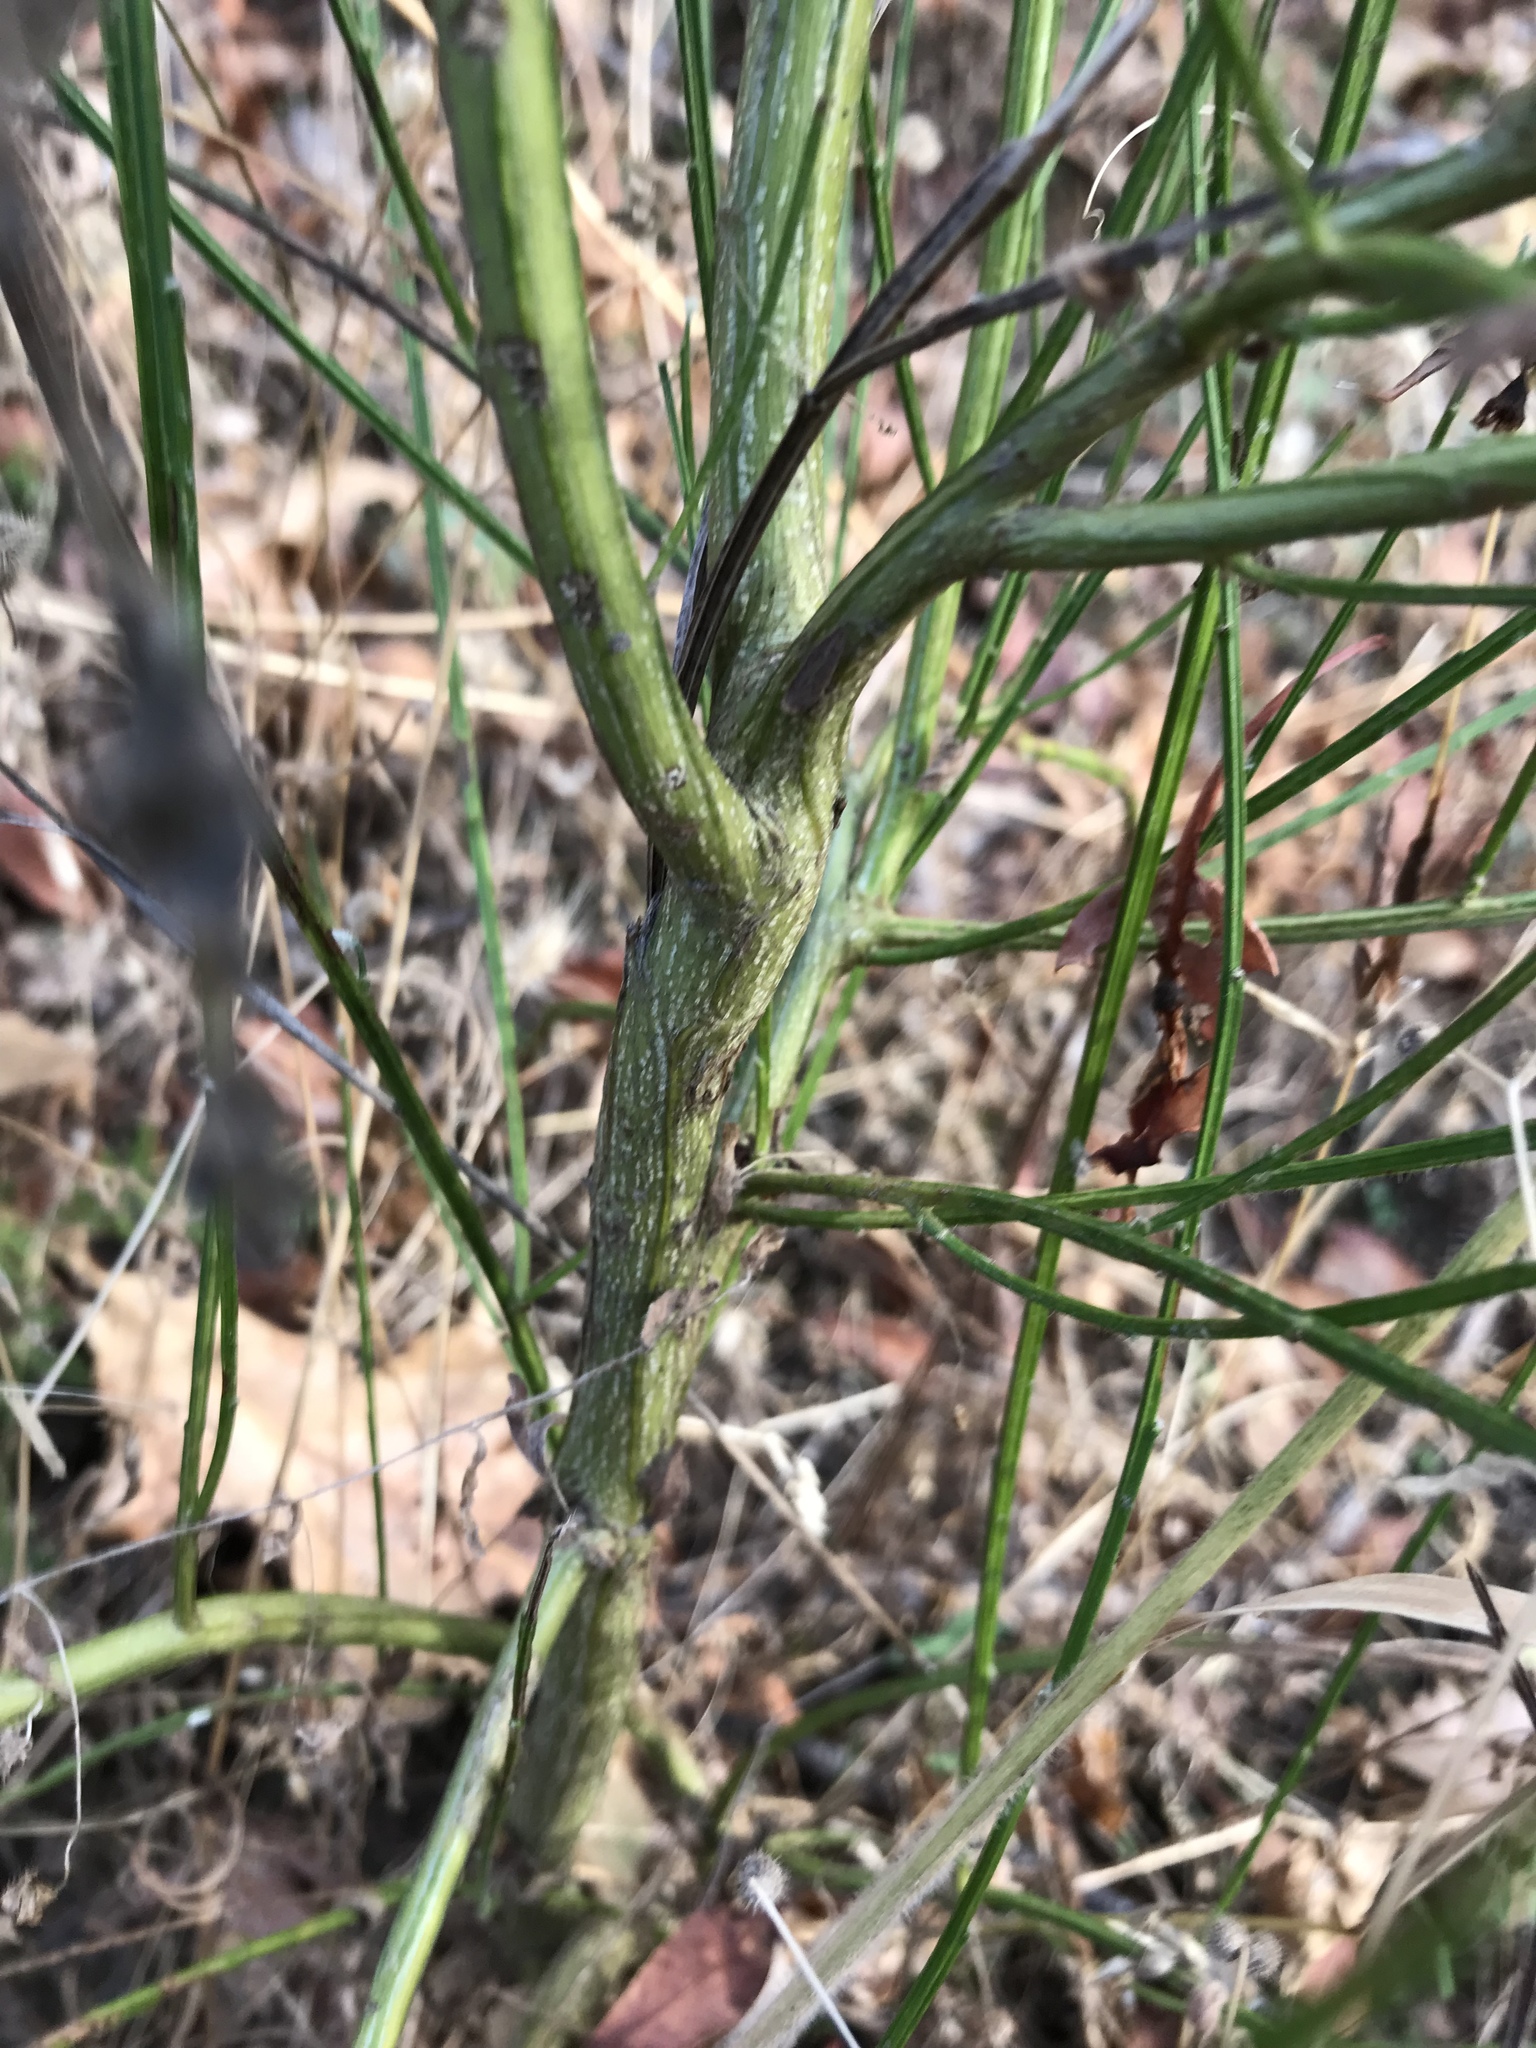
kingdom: Plantae
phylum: Tracheophyta
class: Magnoliopsida
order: Fabales
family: Fabaceae
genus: Cytisus
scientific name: Cytisus scoparius
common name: Scotch broom
